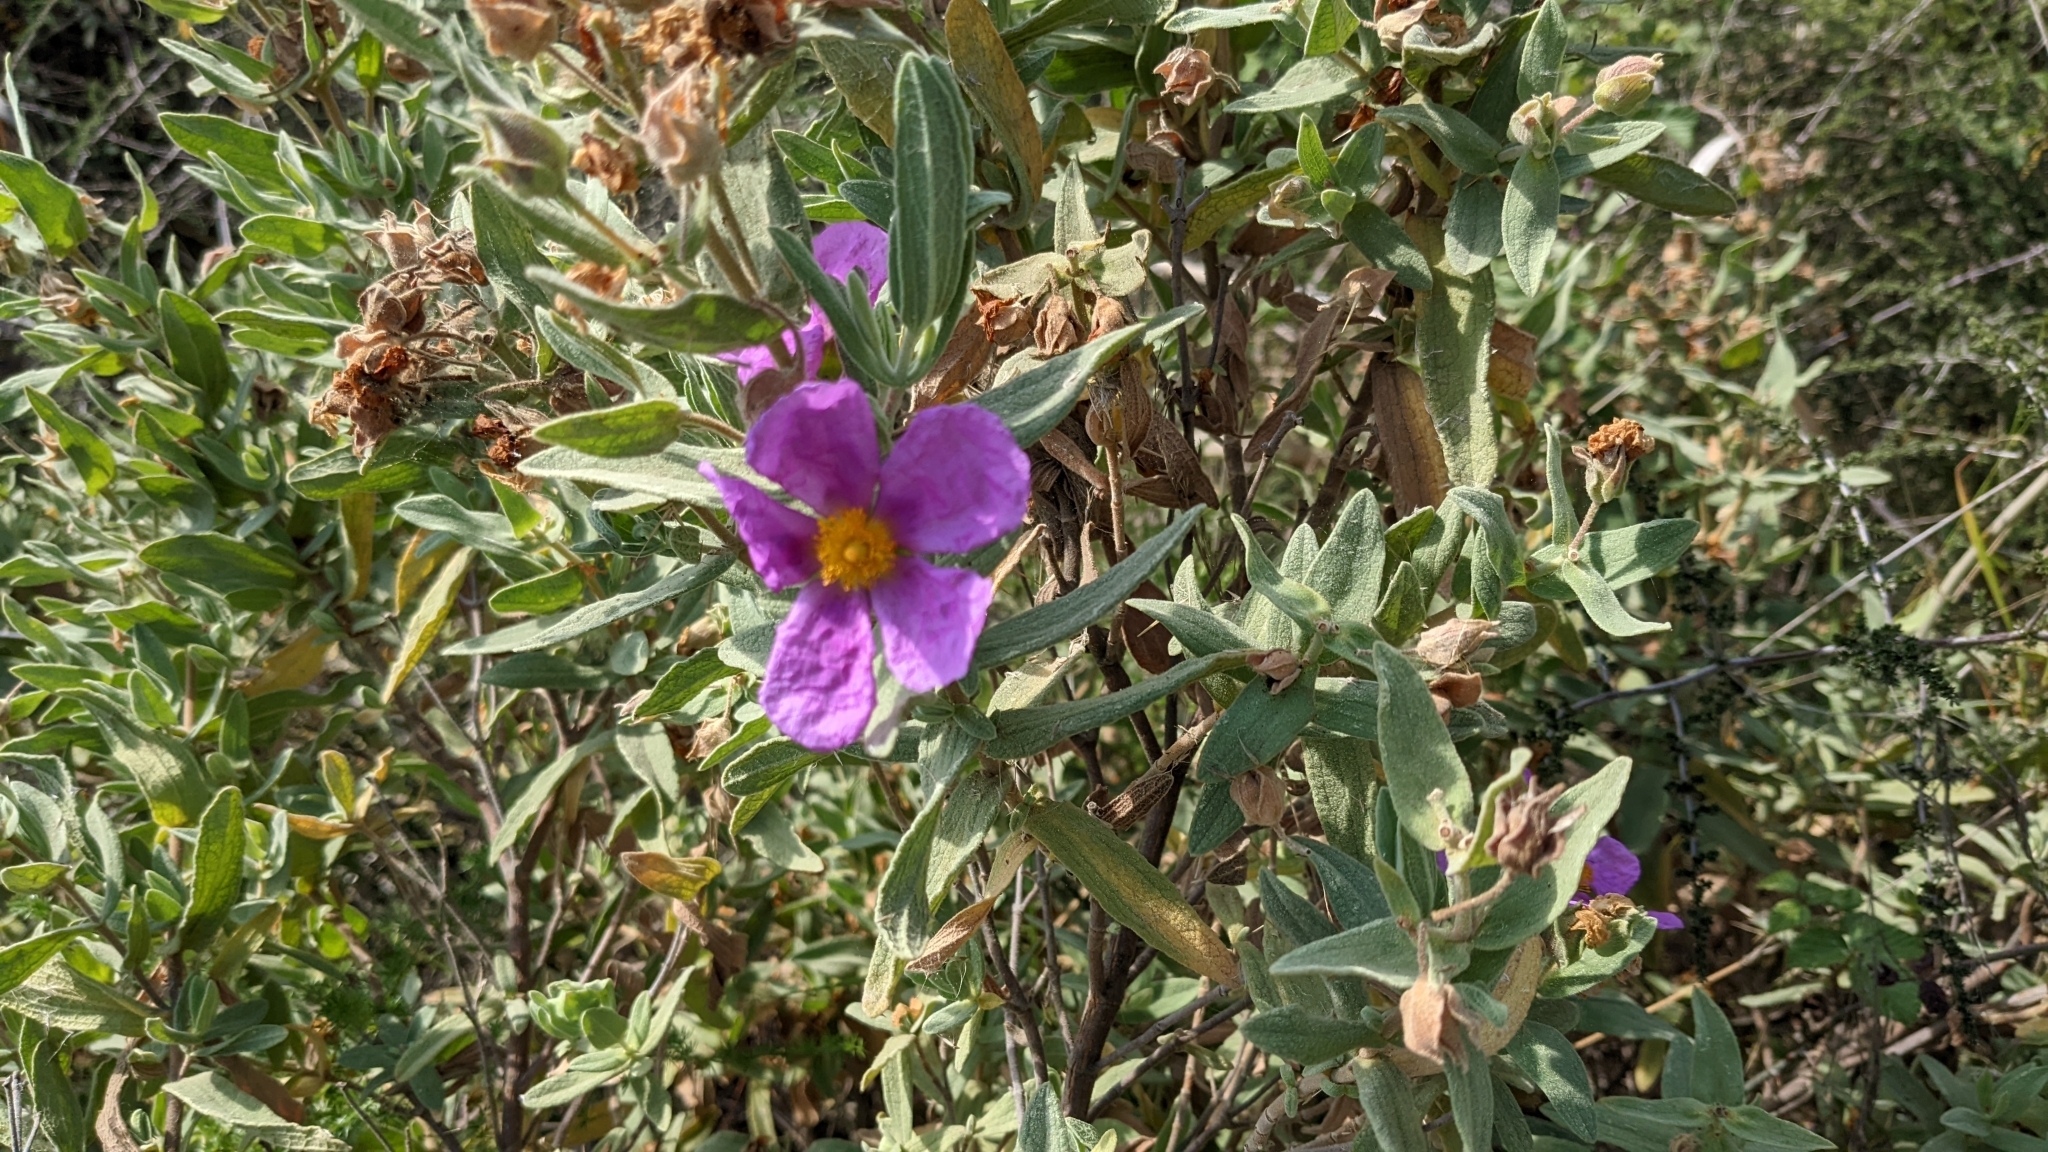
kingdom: Plantae
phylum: Tracheophyta
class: Magnoliopsida
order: Malvales
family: Cistaceae
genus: Cistus
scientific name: Cistus albidus
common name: White-leaf rock-rose
